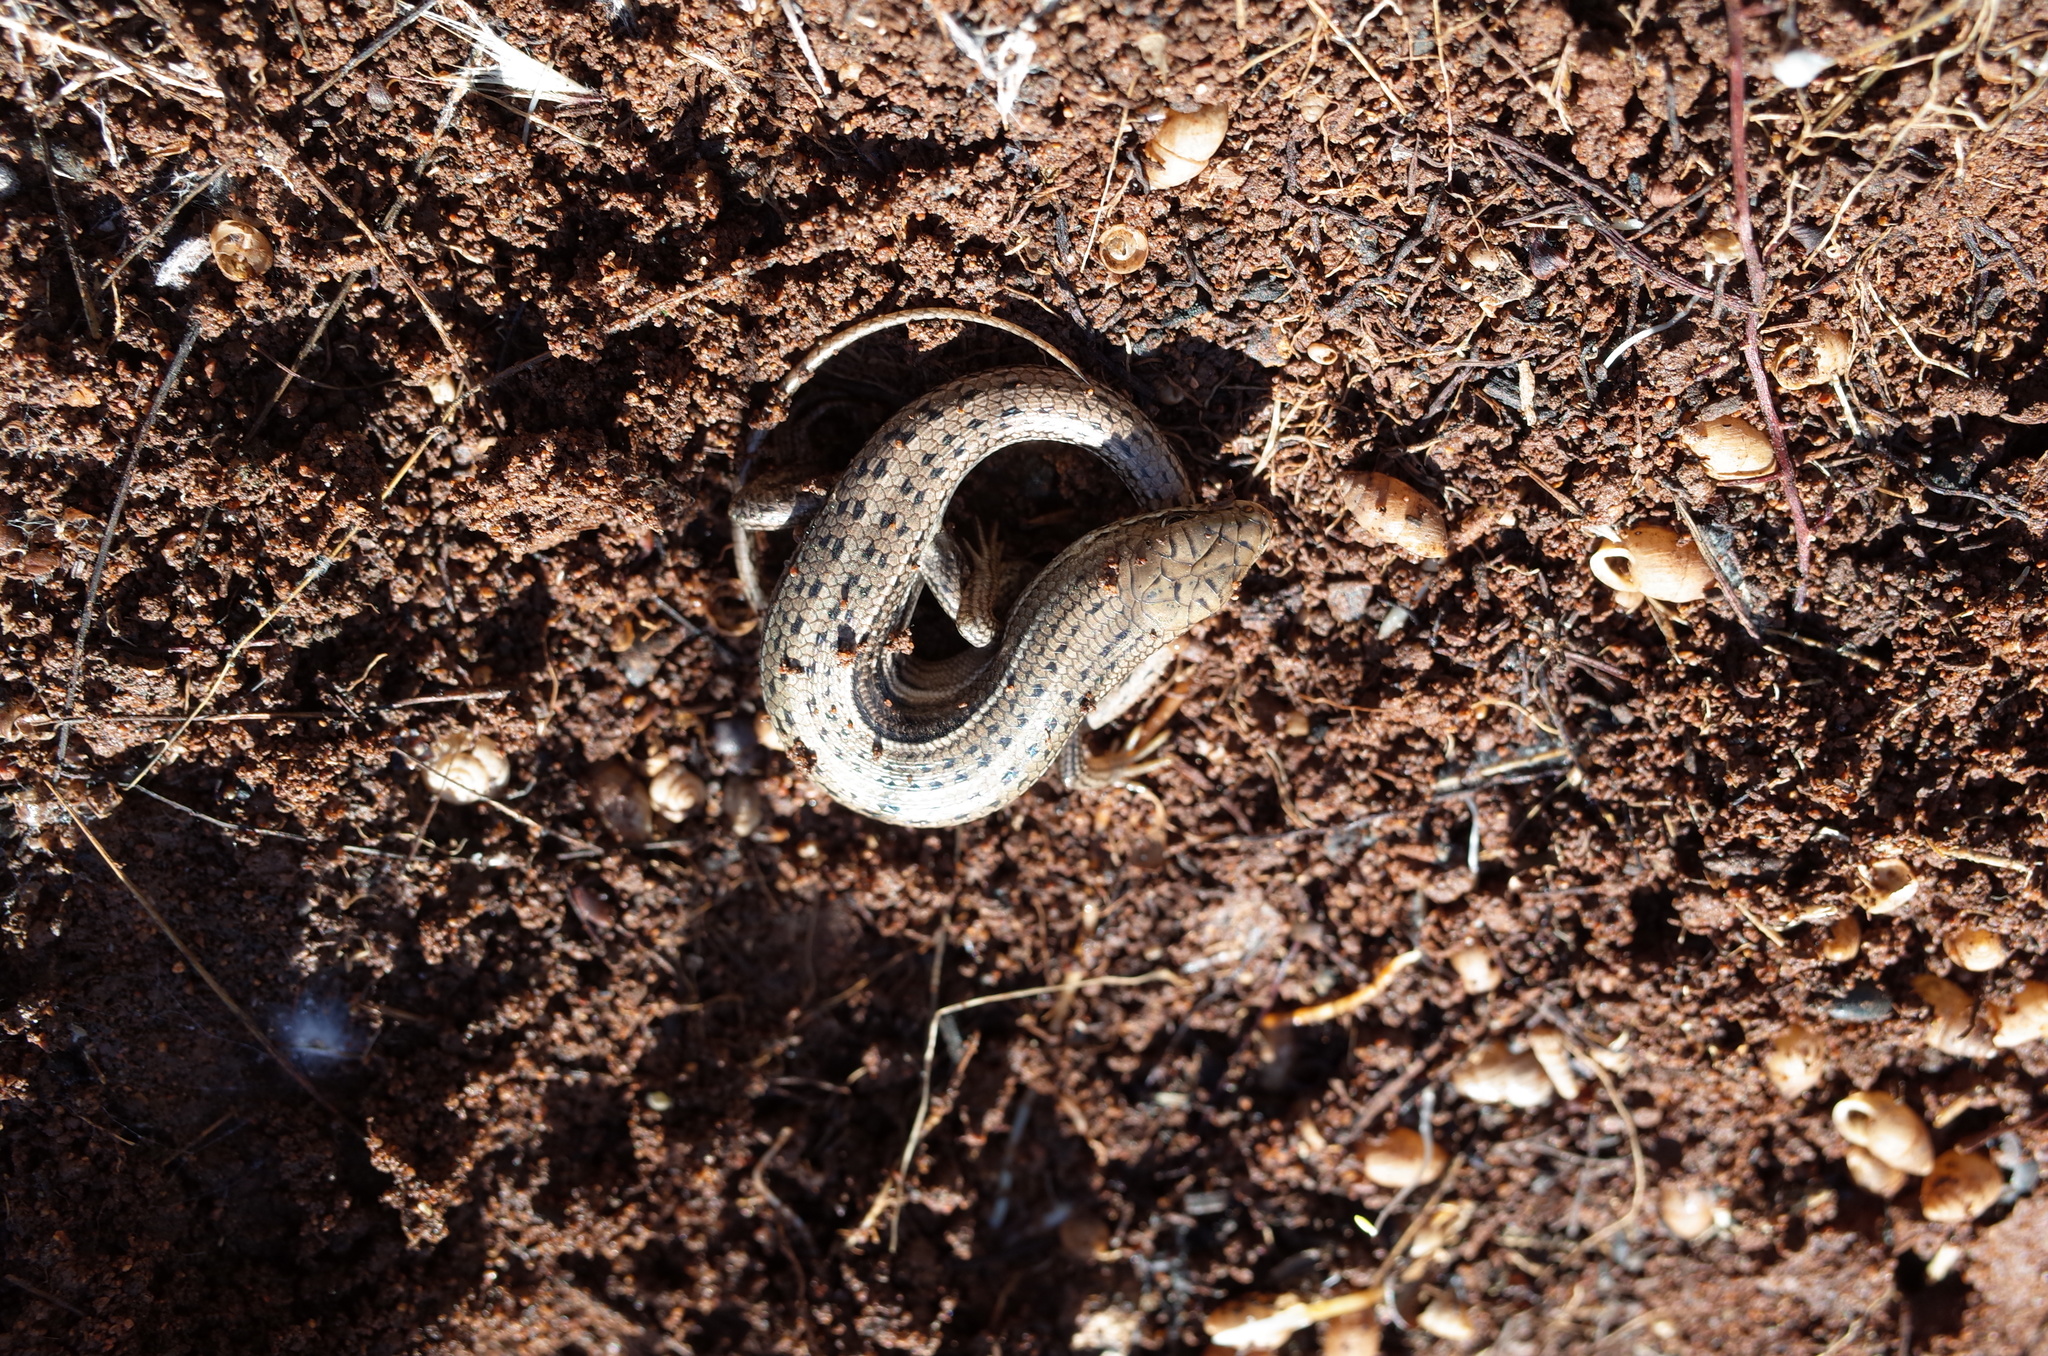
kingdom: Animalia
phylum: Chordata
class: Squamata
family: Scincidae
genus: Heremites
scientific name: Heremites vittatus
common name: Bridled mabuya
